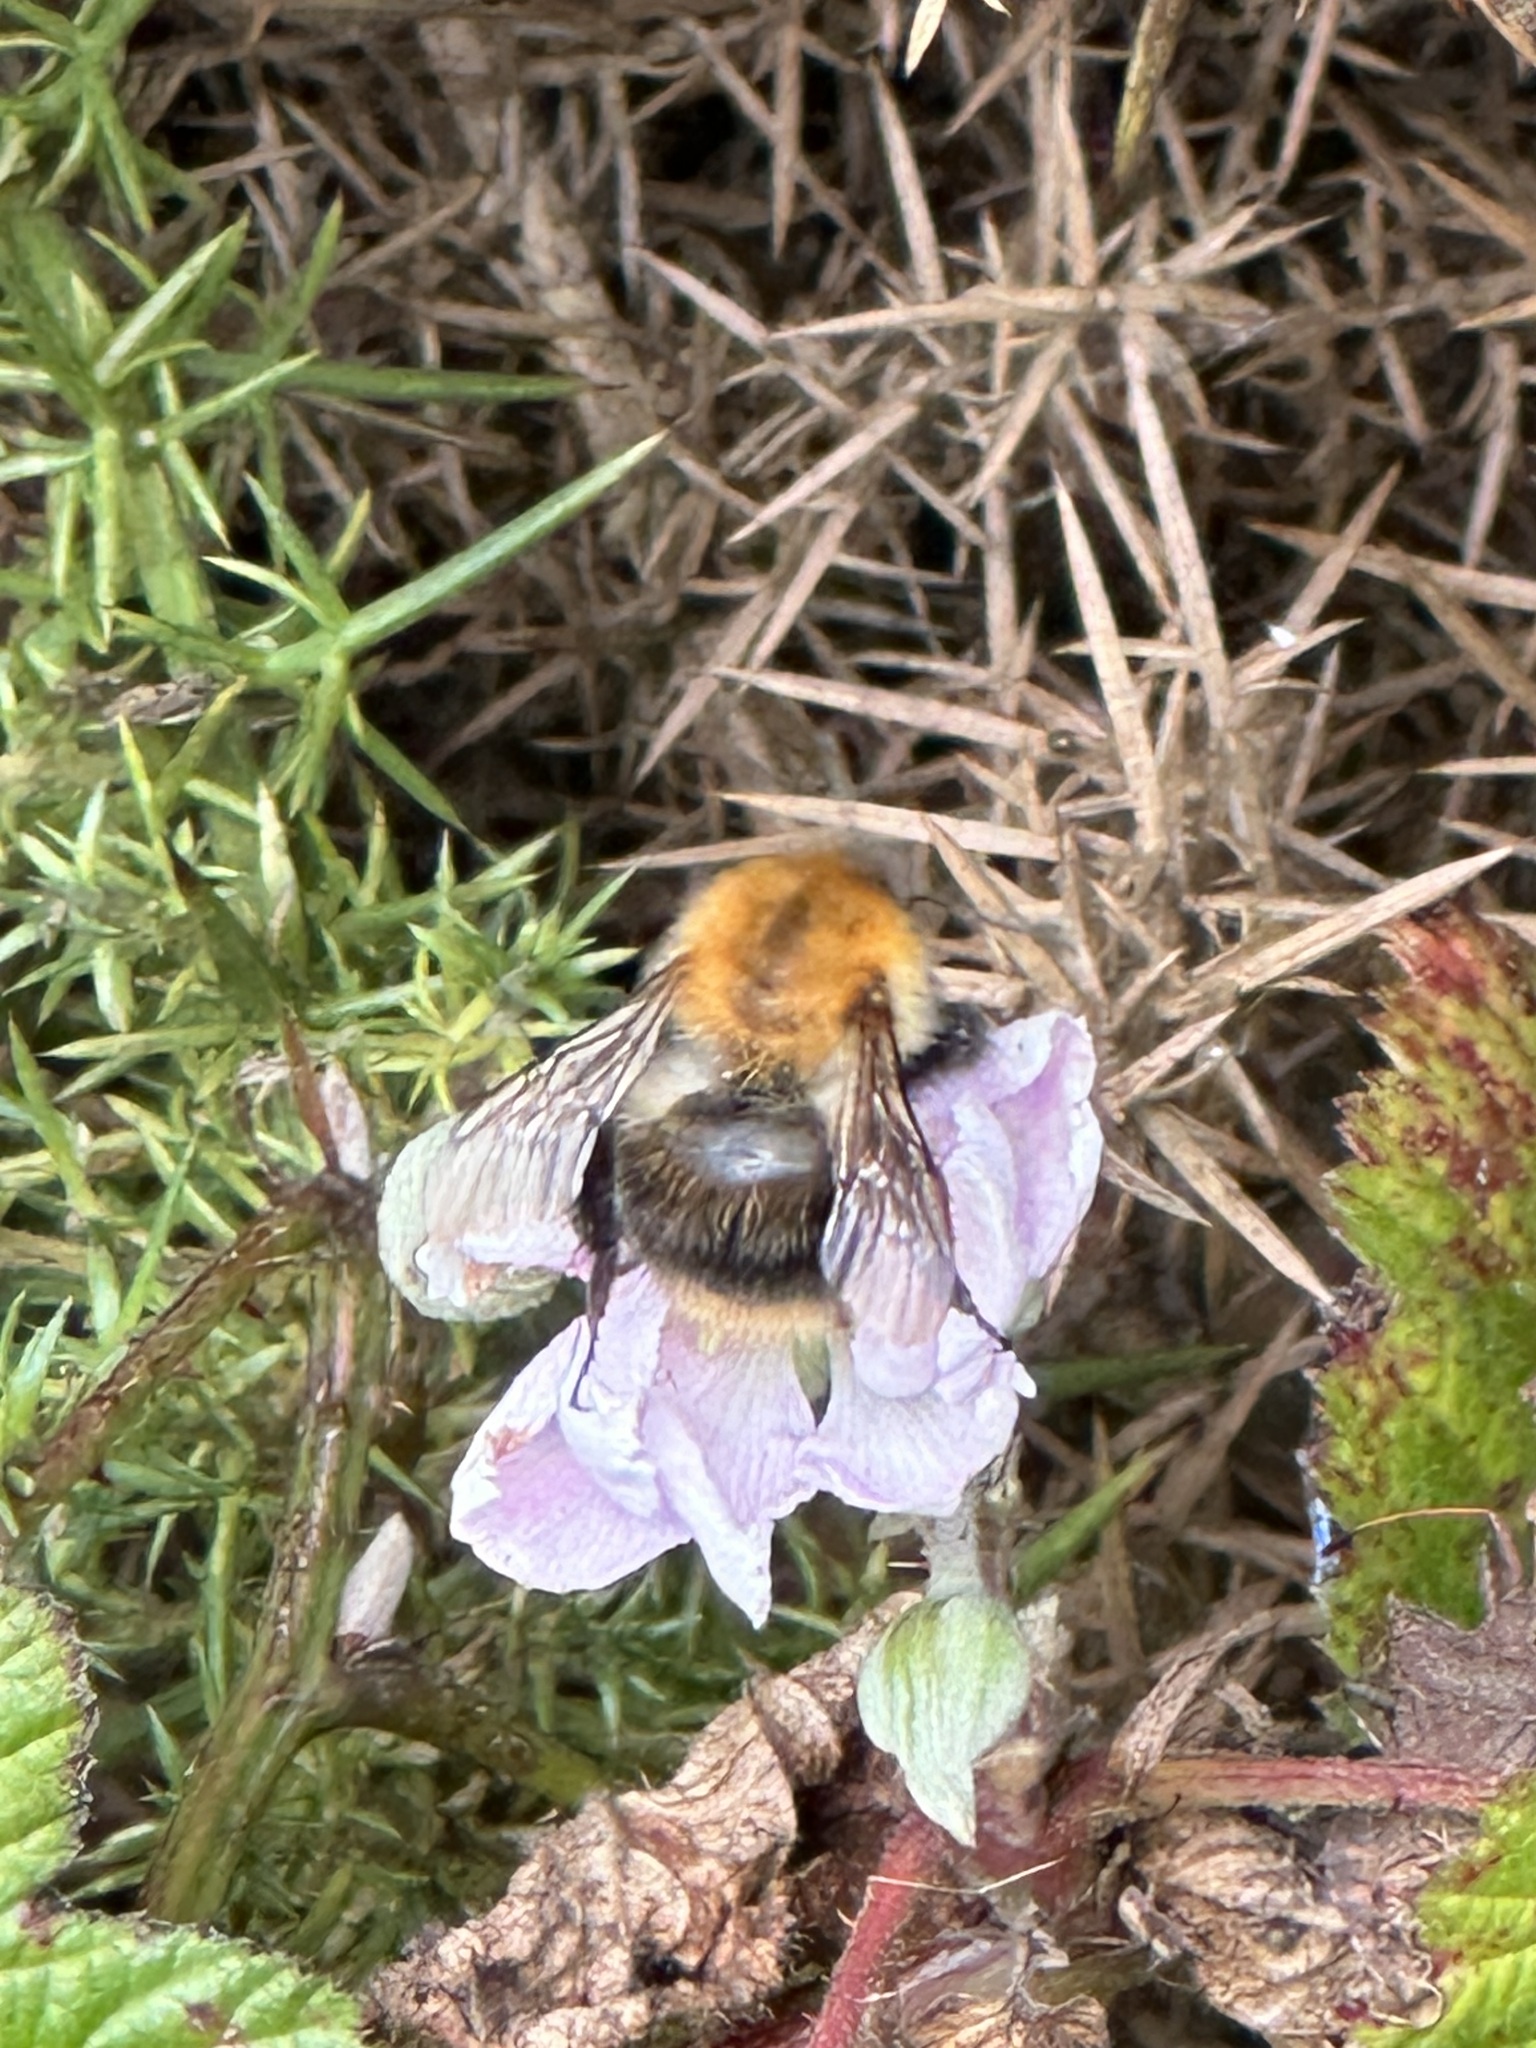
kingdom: Animalia
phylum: Arthropoda
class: Insecta
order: Hymenoptera
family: Apidae
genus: Bombus
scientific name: Bombus pascuorum
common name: Common carder bee
